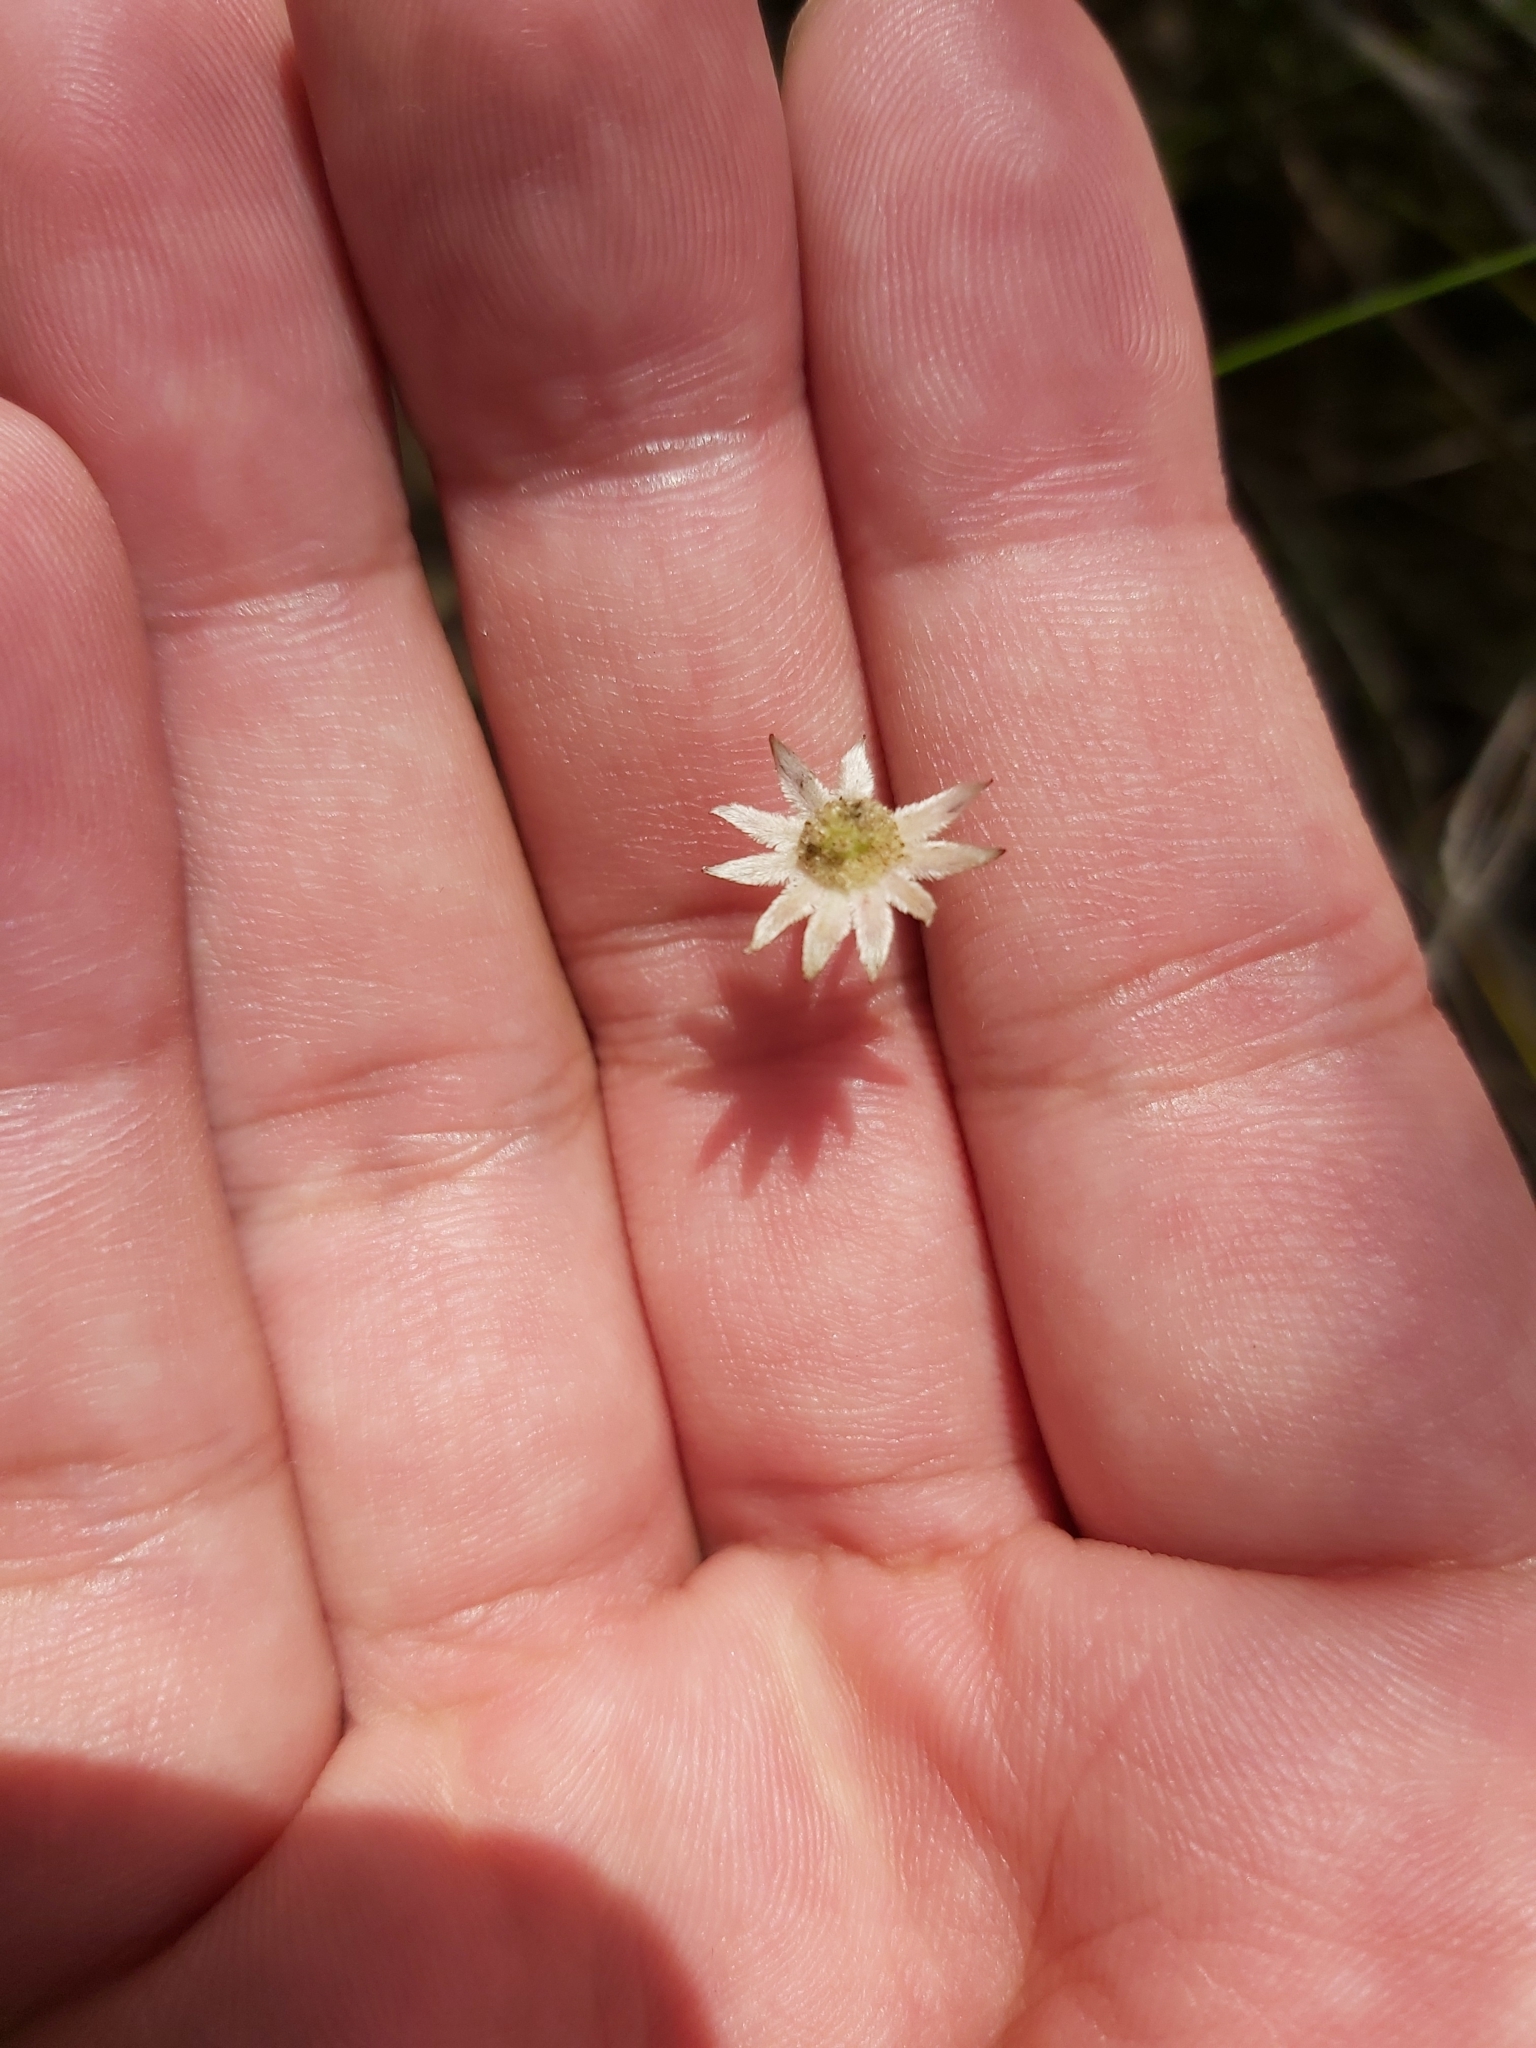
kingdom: Plantae
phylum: Tracheophyta
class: Magnoliopsida
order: Apiales
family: Apiaceae
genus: Actinotus
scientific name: Actinotus minor
